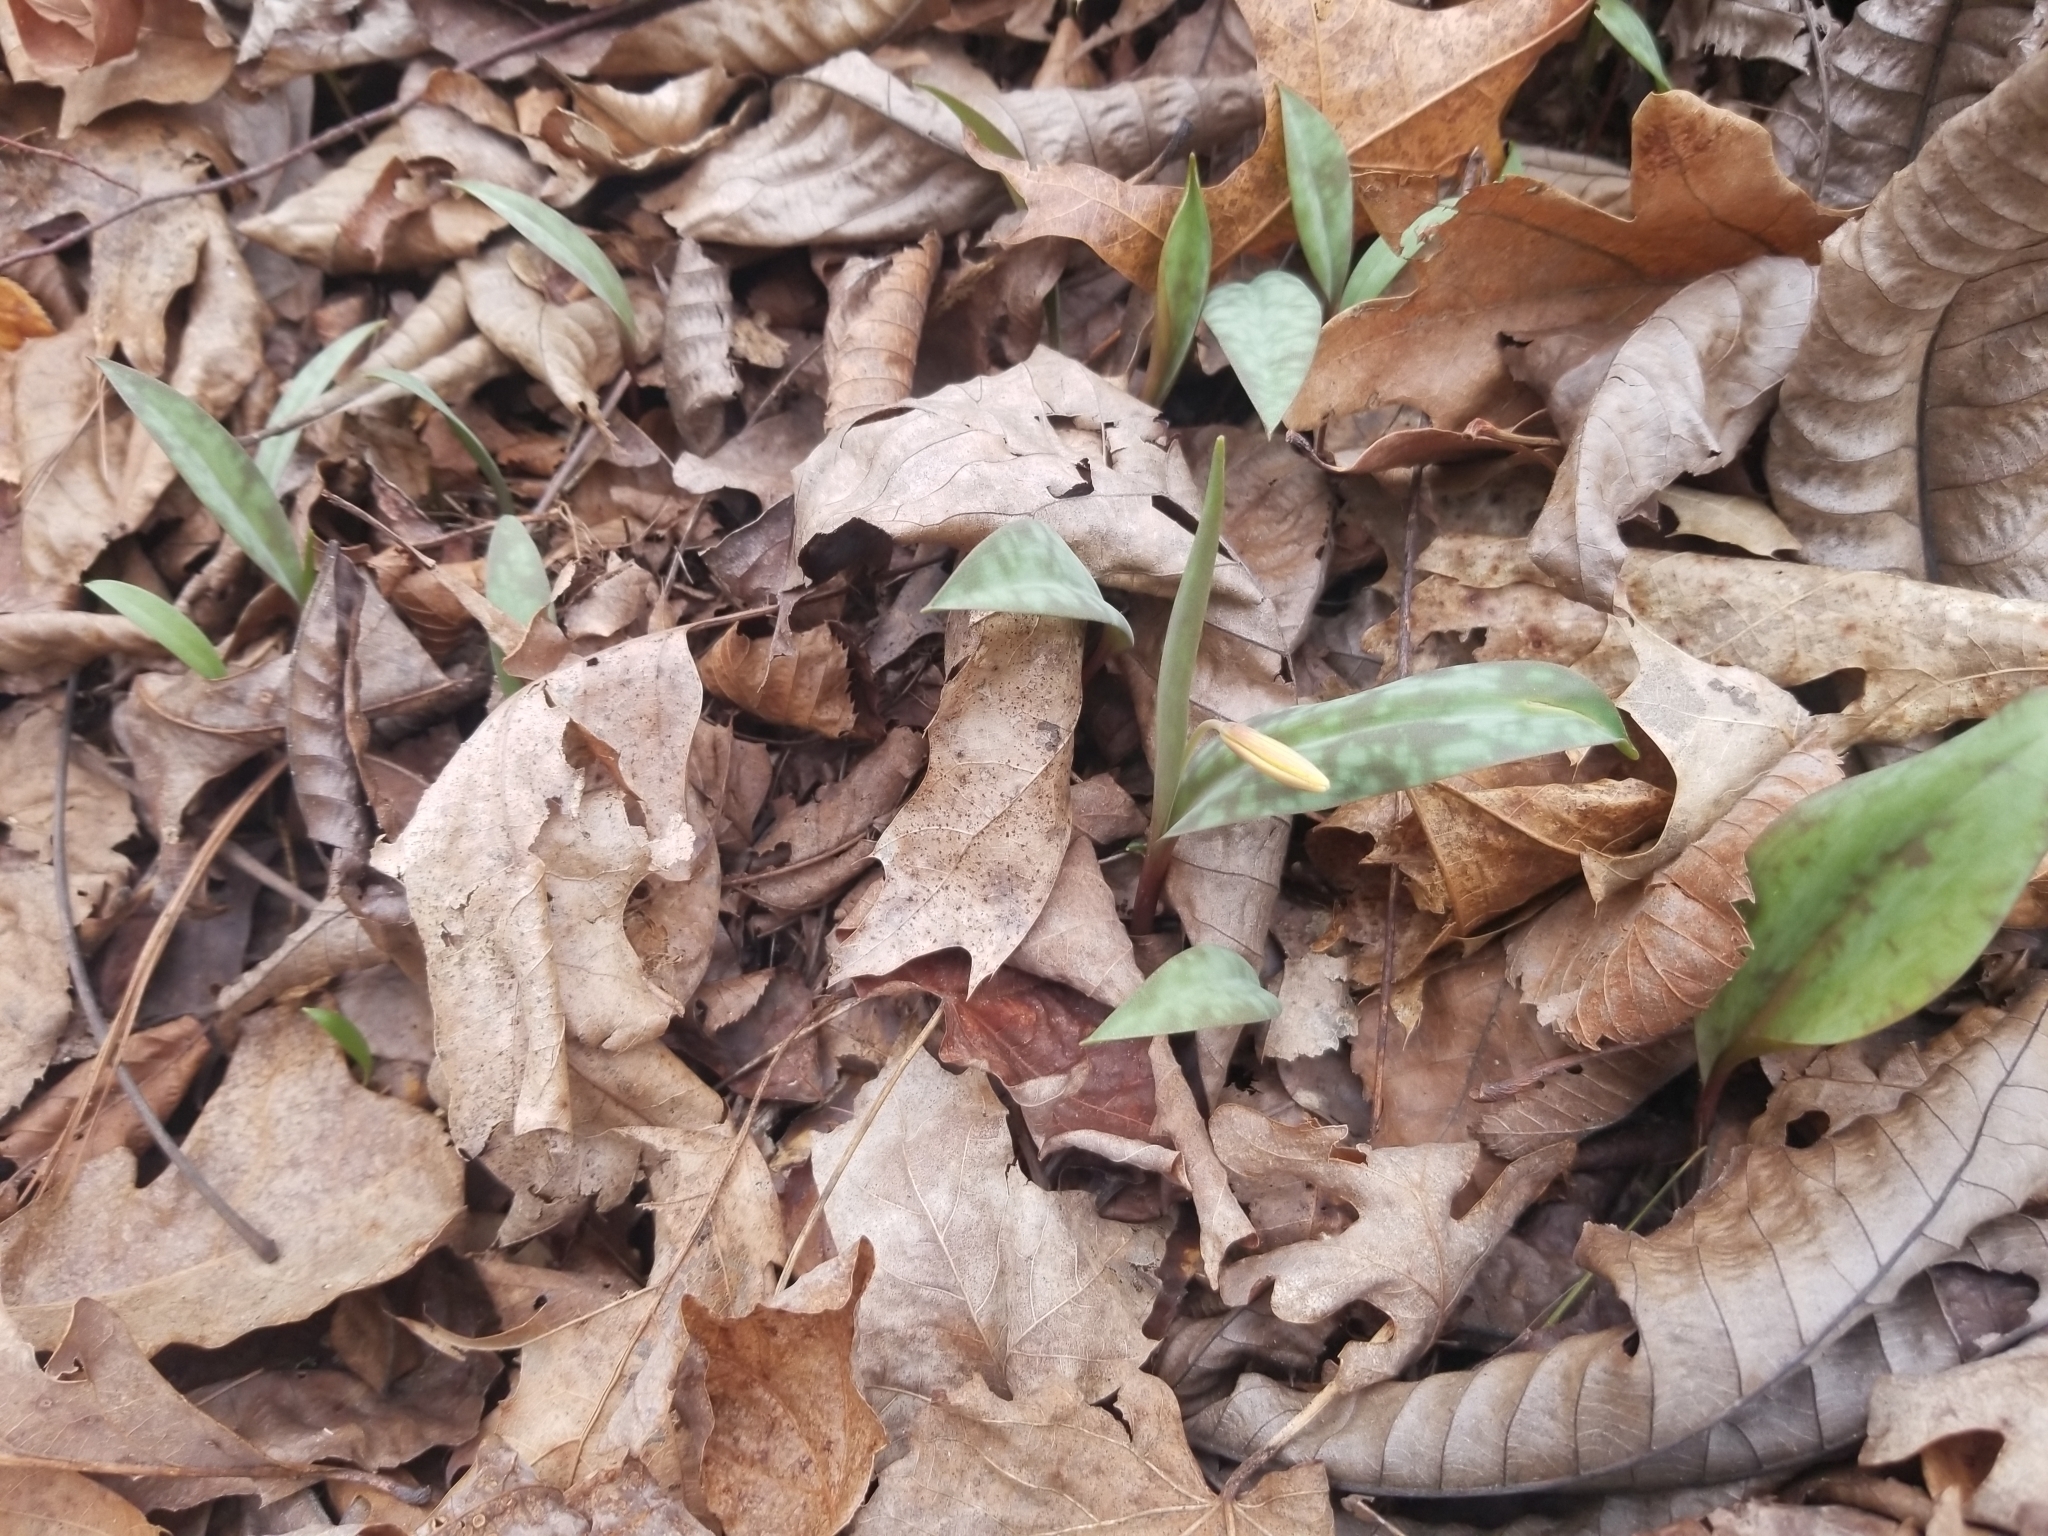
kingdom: Plantae
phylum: Tracheophyta
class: Liliopsida
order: Liliales
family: Liliaceae
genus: Erythronium
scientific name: Erythronium americanum
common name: Yellow adder's-tongue
